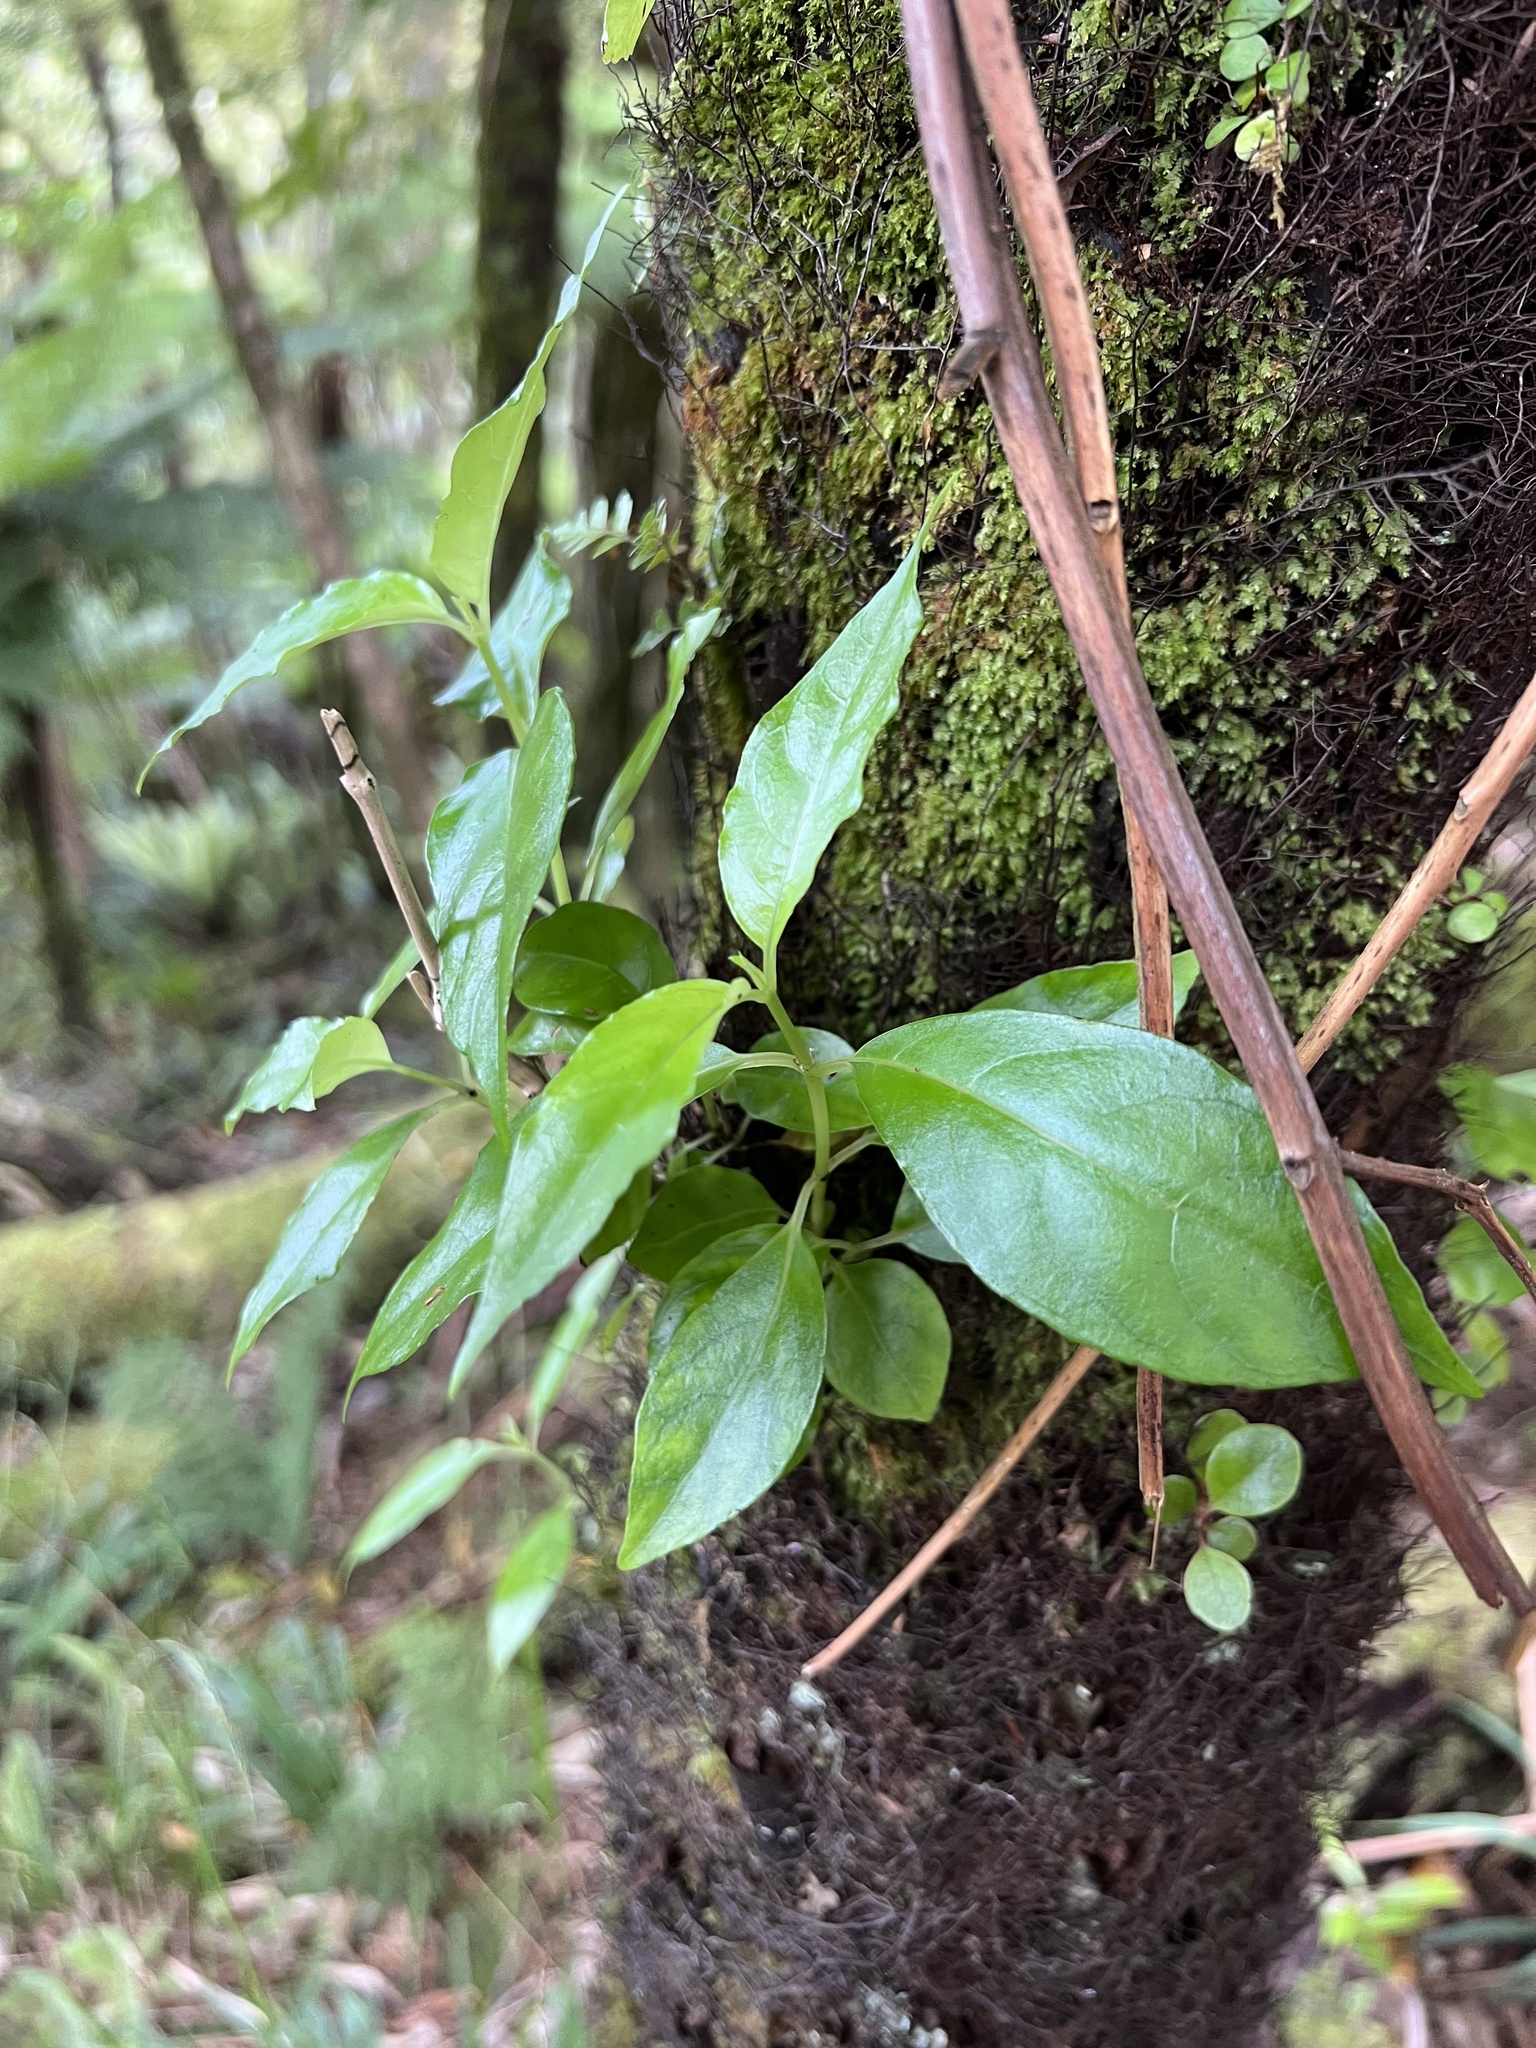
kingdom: Plantae
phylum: Tracheophyta
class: Magnoliopsida
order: Gentianales
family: Loganiaceae
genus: Geniostoma
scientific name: Geniostoma ligustrifolium
